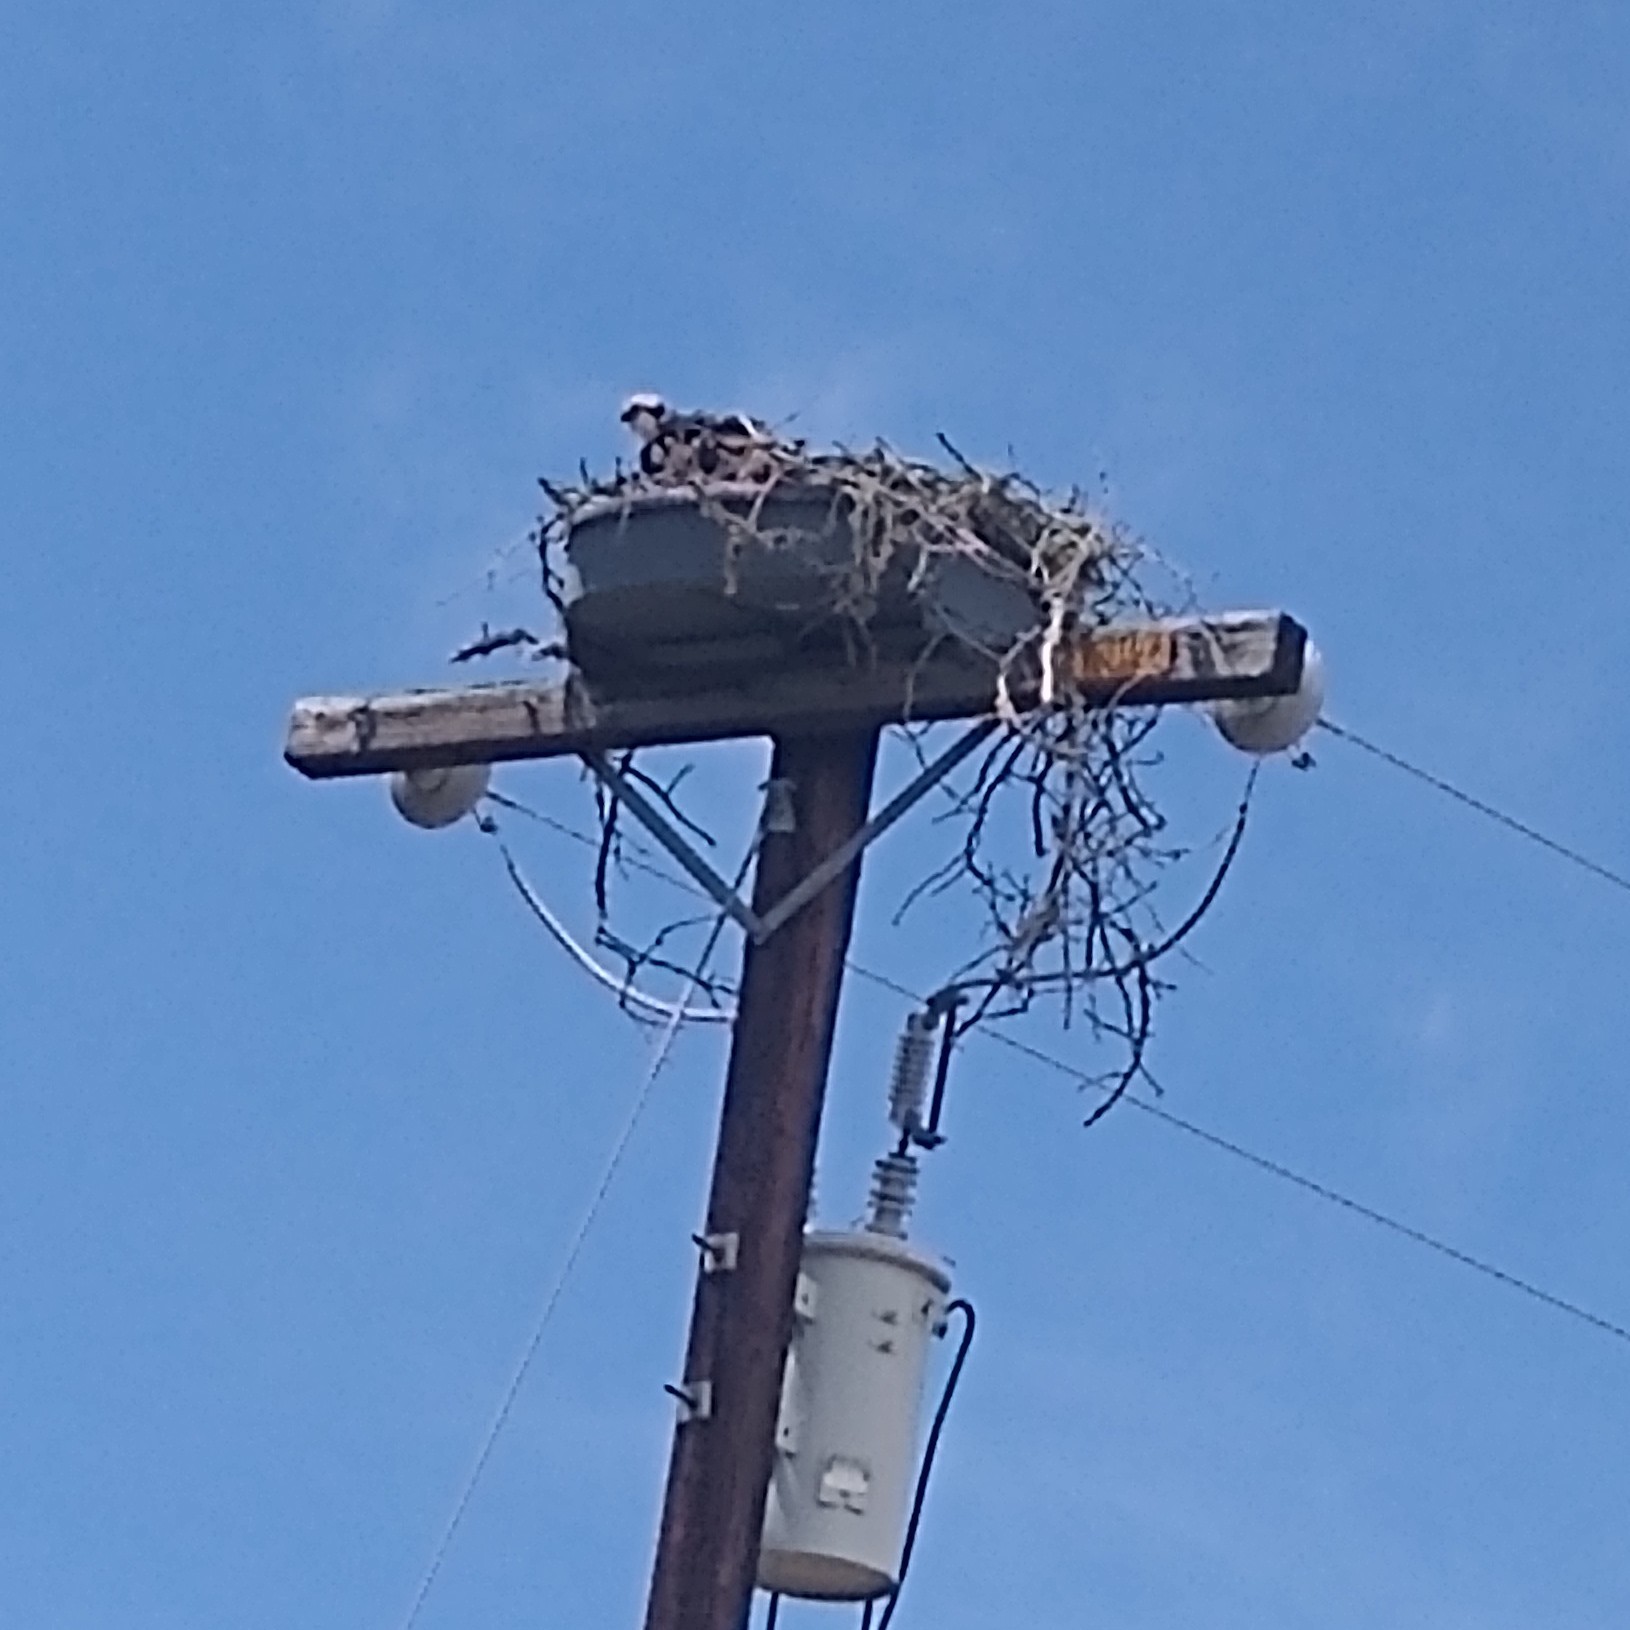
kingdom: Animalia
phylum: Chordata
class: Aves
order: Accipitriformes
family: Pandionidae
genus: Pandion
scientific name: Pandion haliaetus
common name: Osprey
